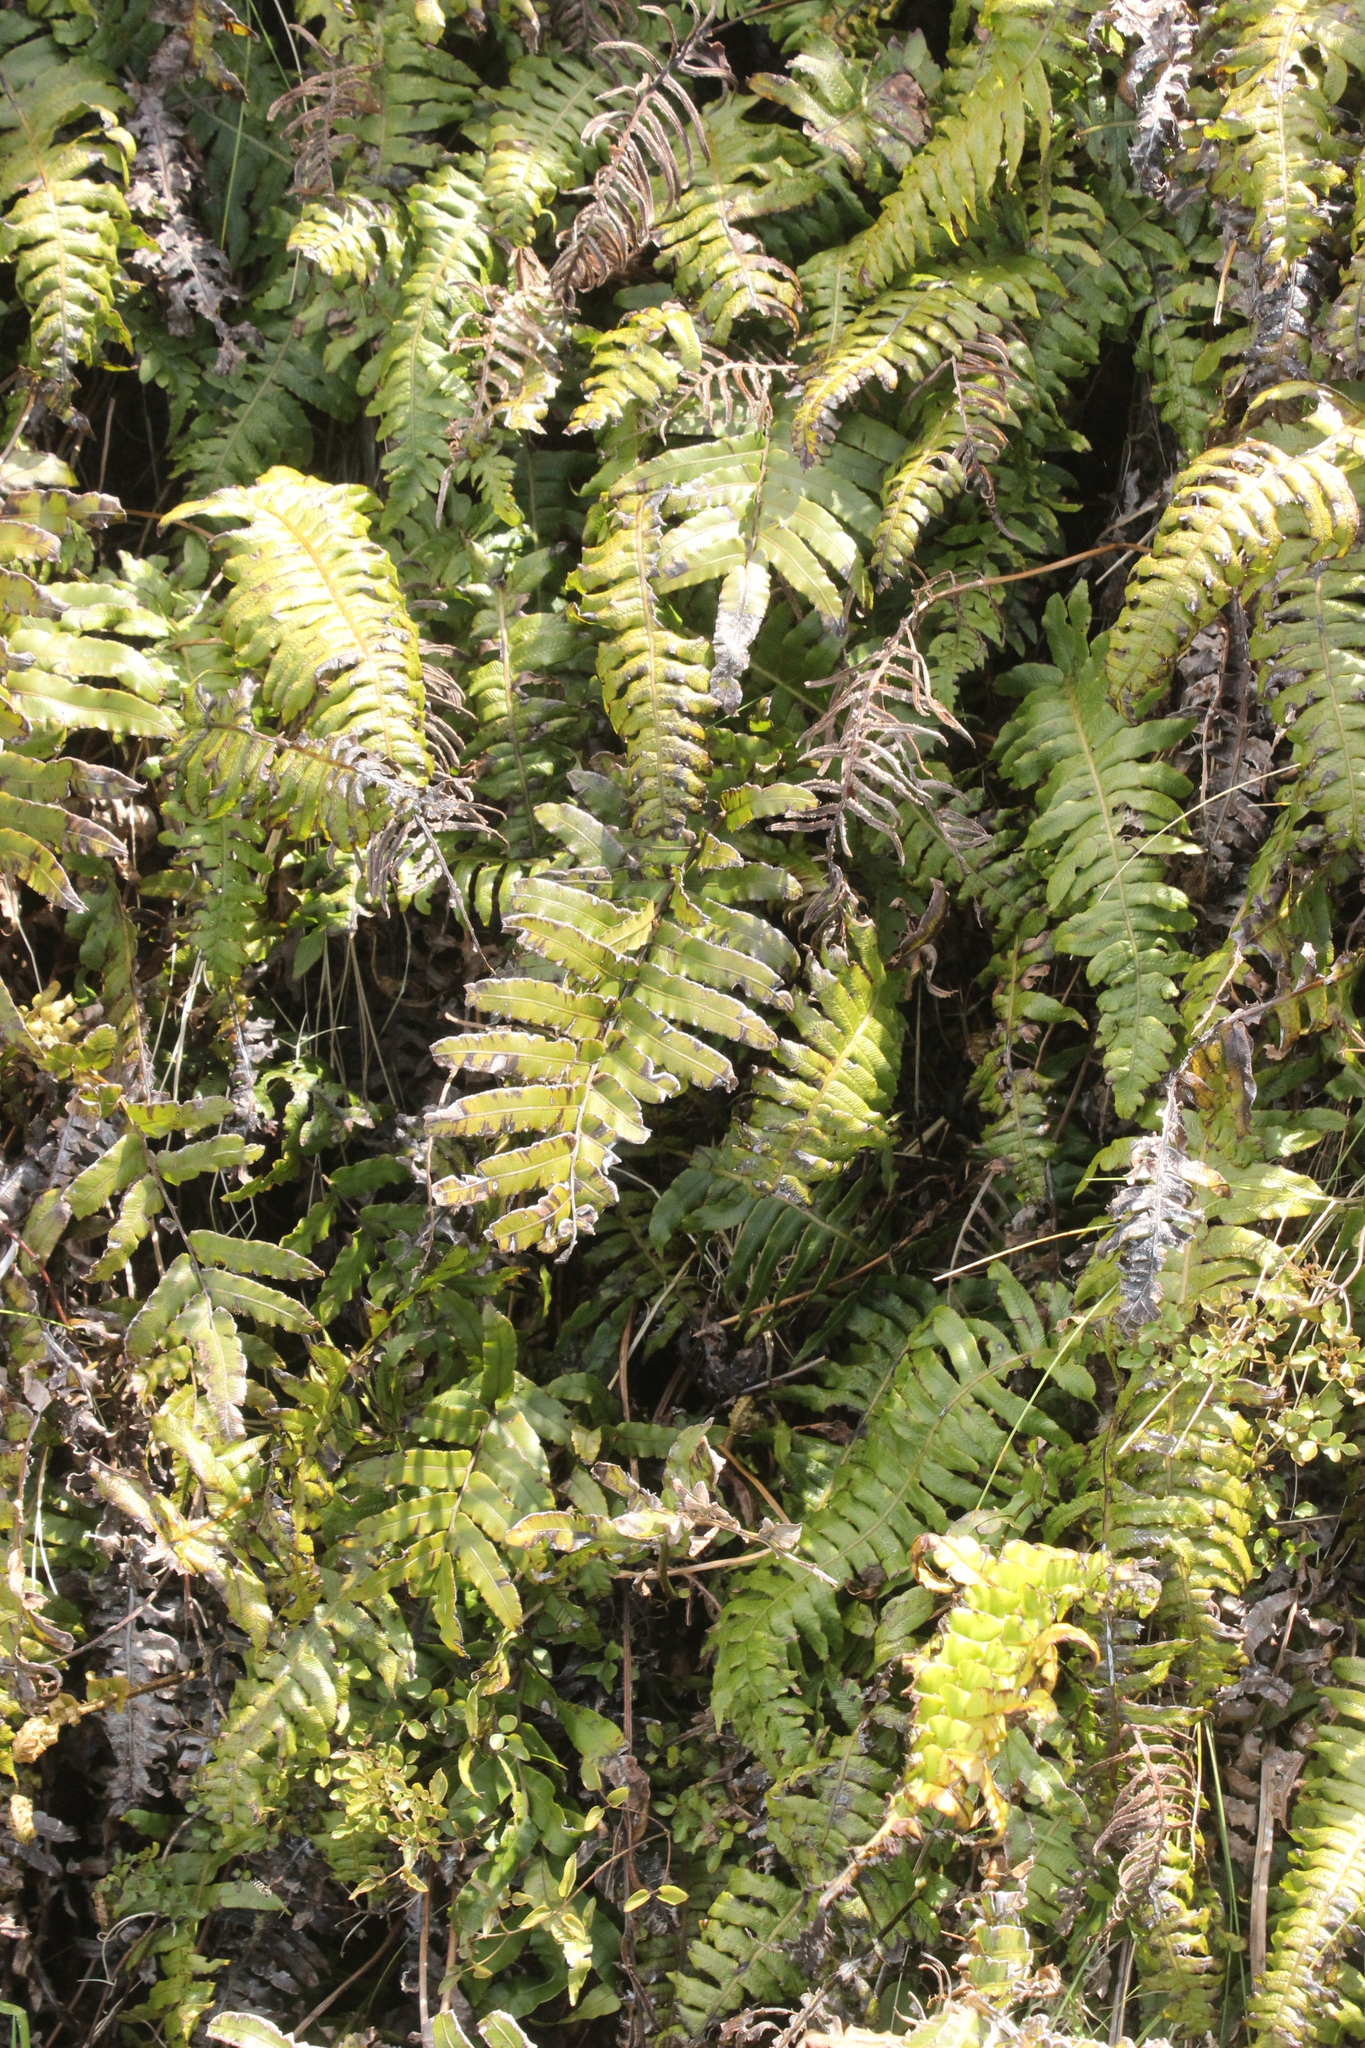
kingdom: Plantae
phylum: Tracheophyta
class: Polypodiopsida
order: Polypodiales
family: Blechnaceae
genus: Cranfillia
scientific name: Cranfillia deltoides
